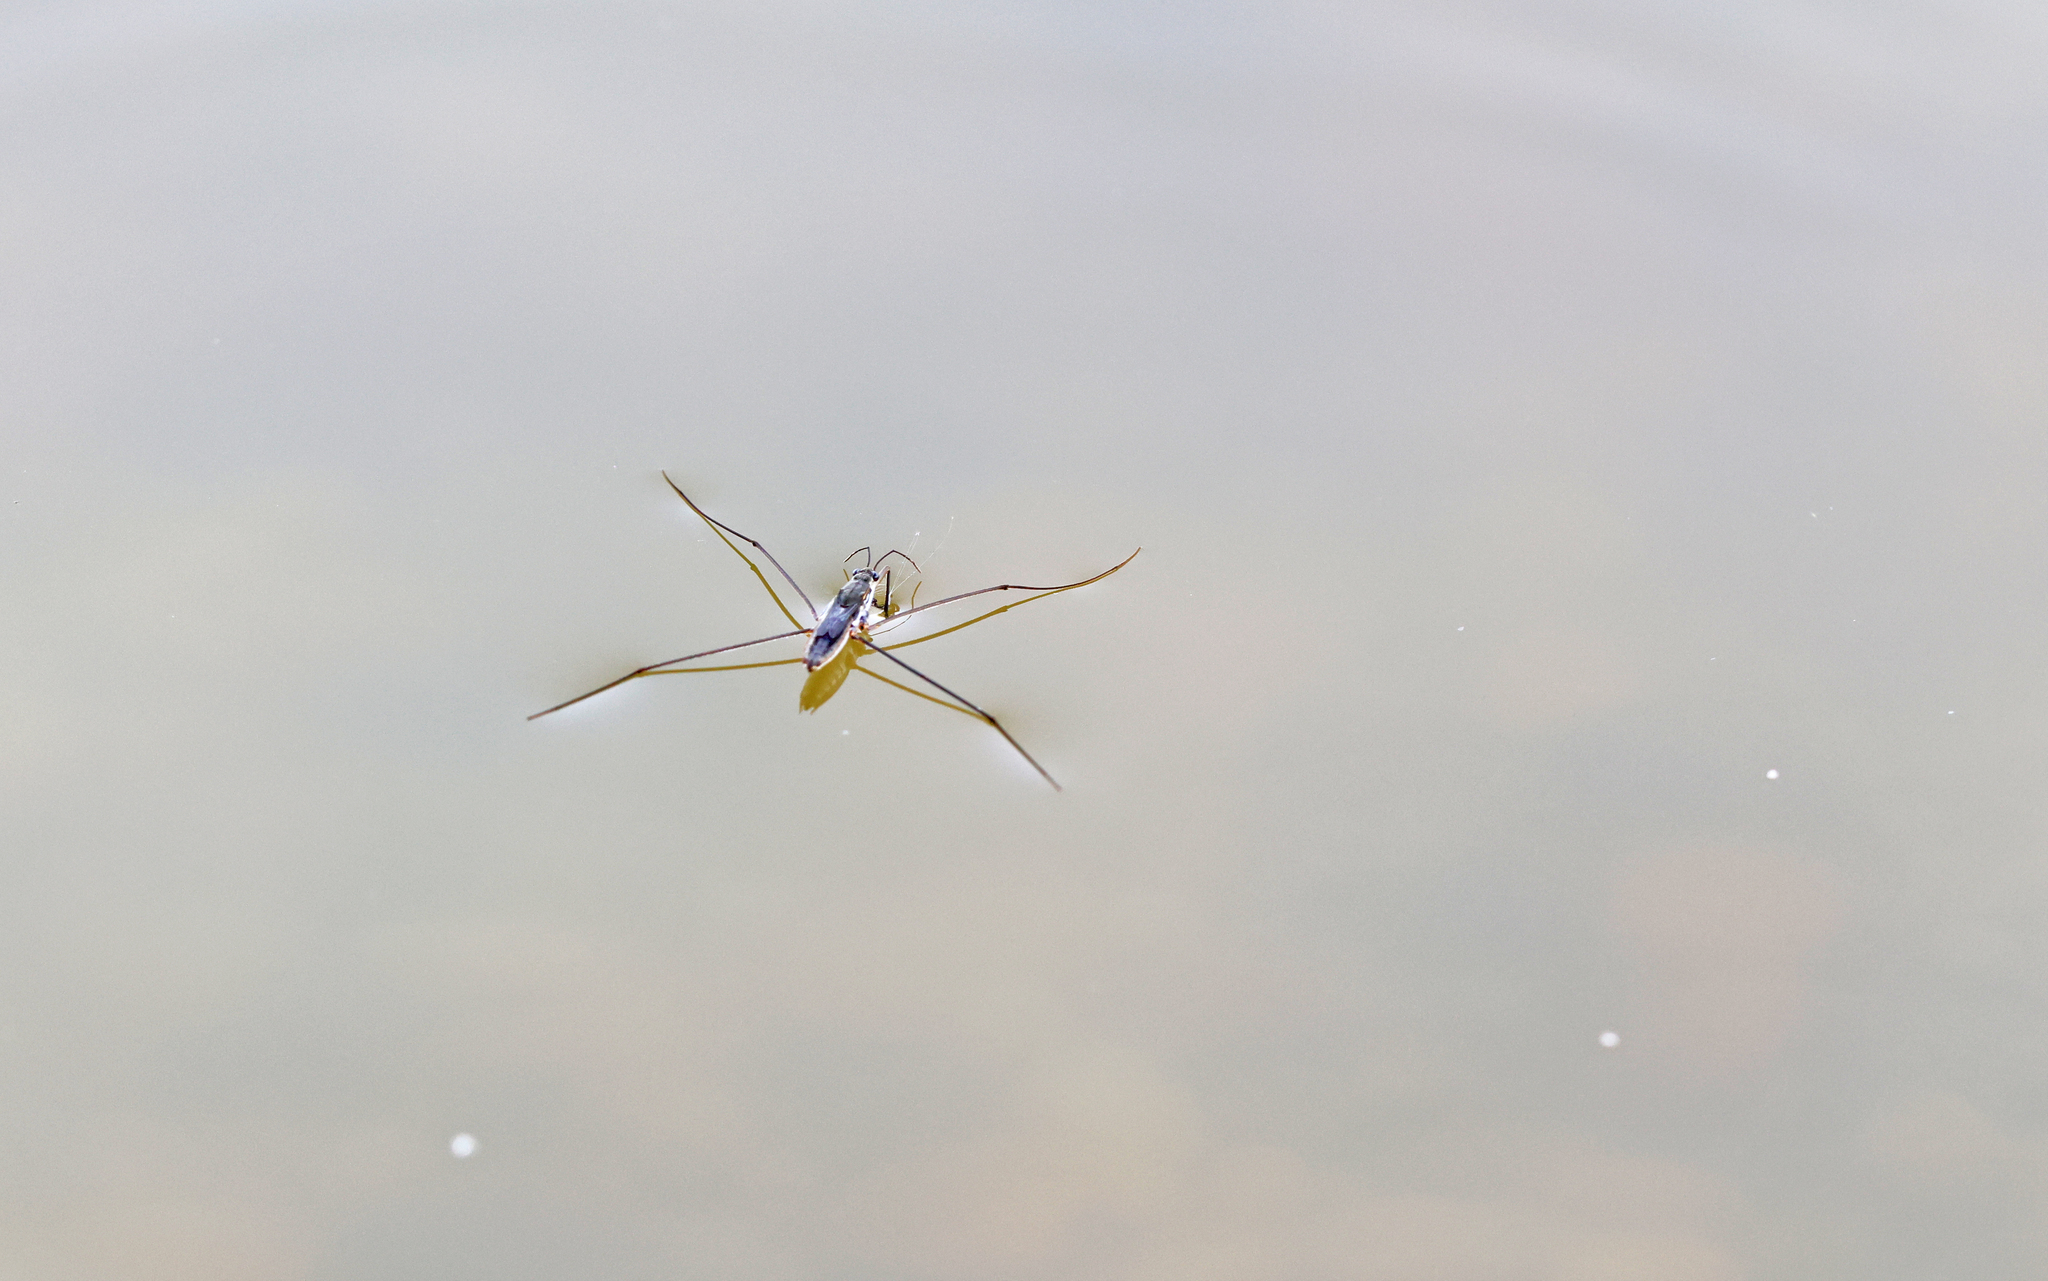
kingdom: Animalia
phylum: Arthropoda
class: Insecta
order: Hemiptera
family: Gerridae
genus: Aquarius
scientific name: Aquarius paludum
